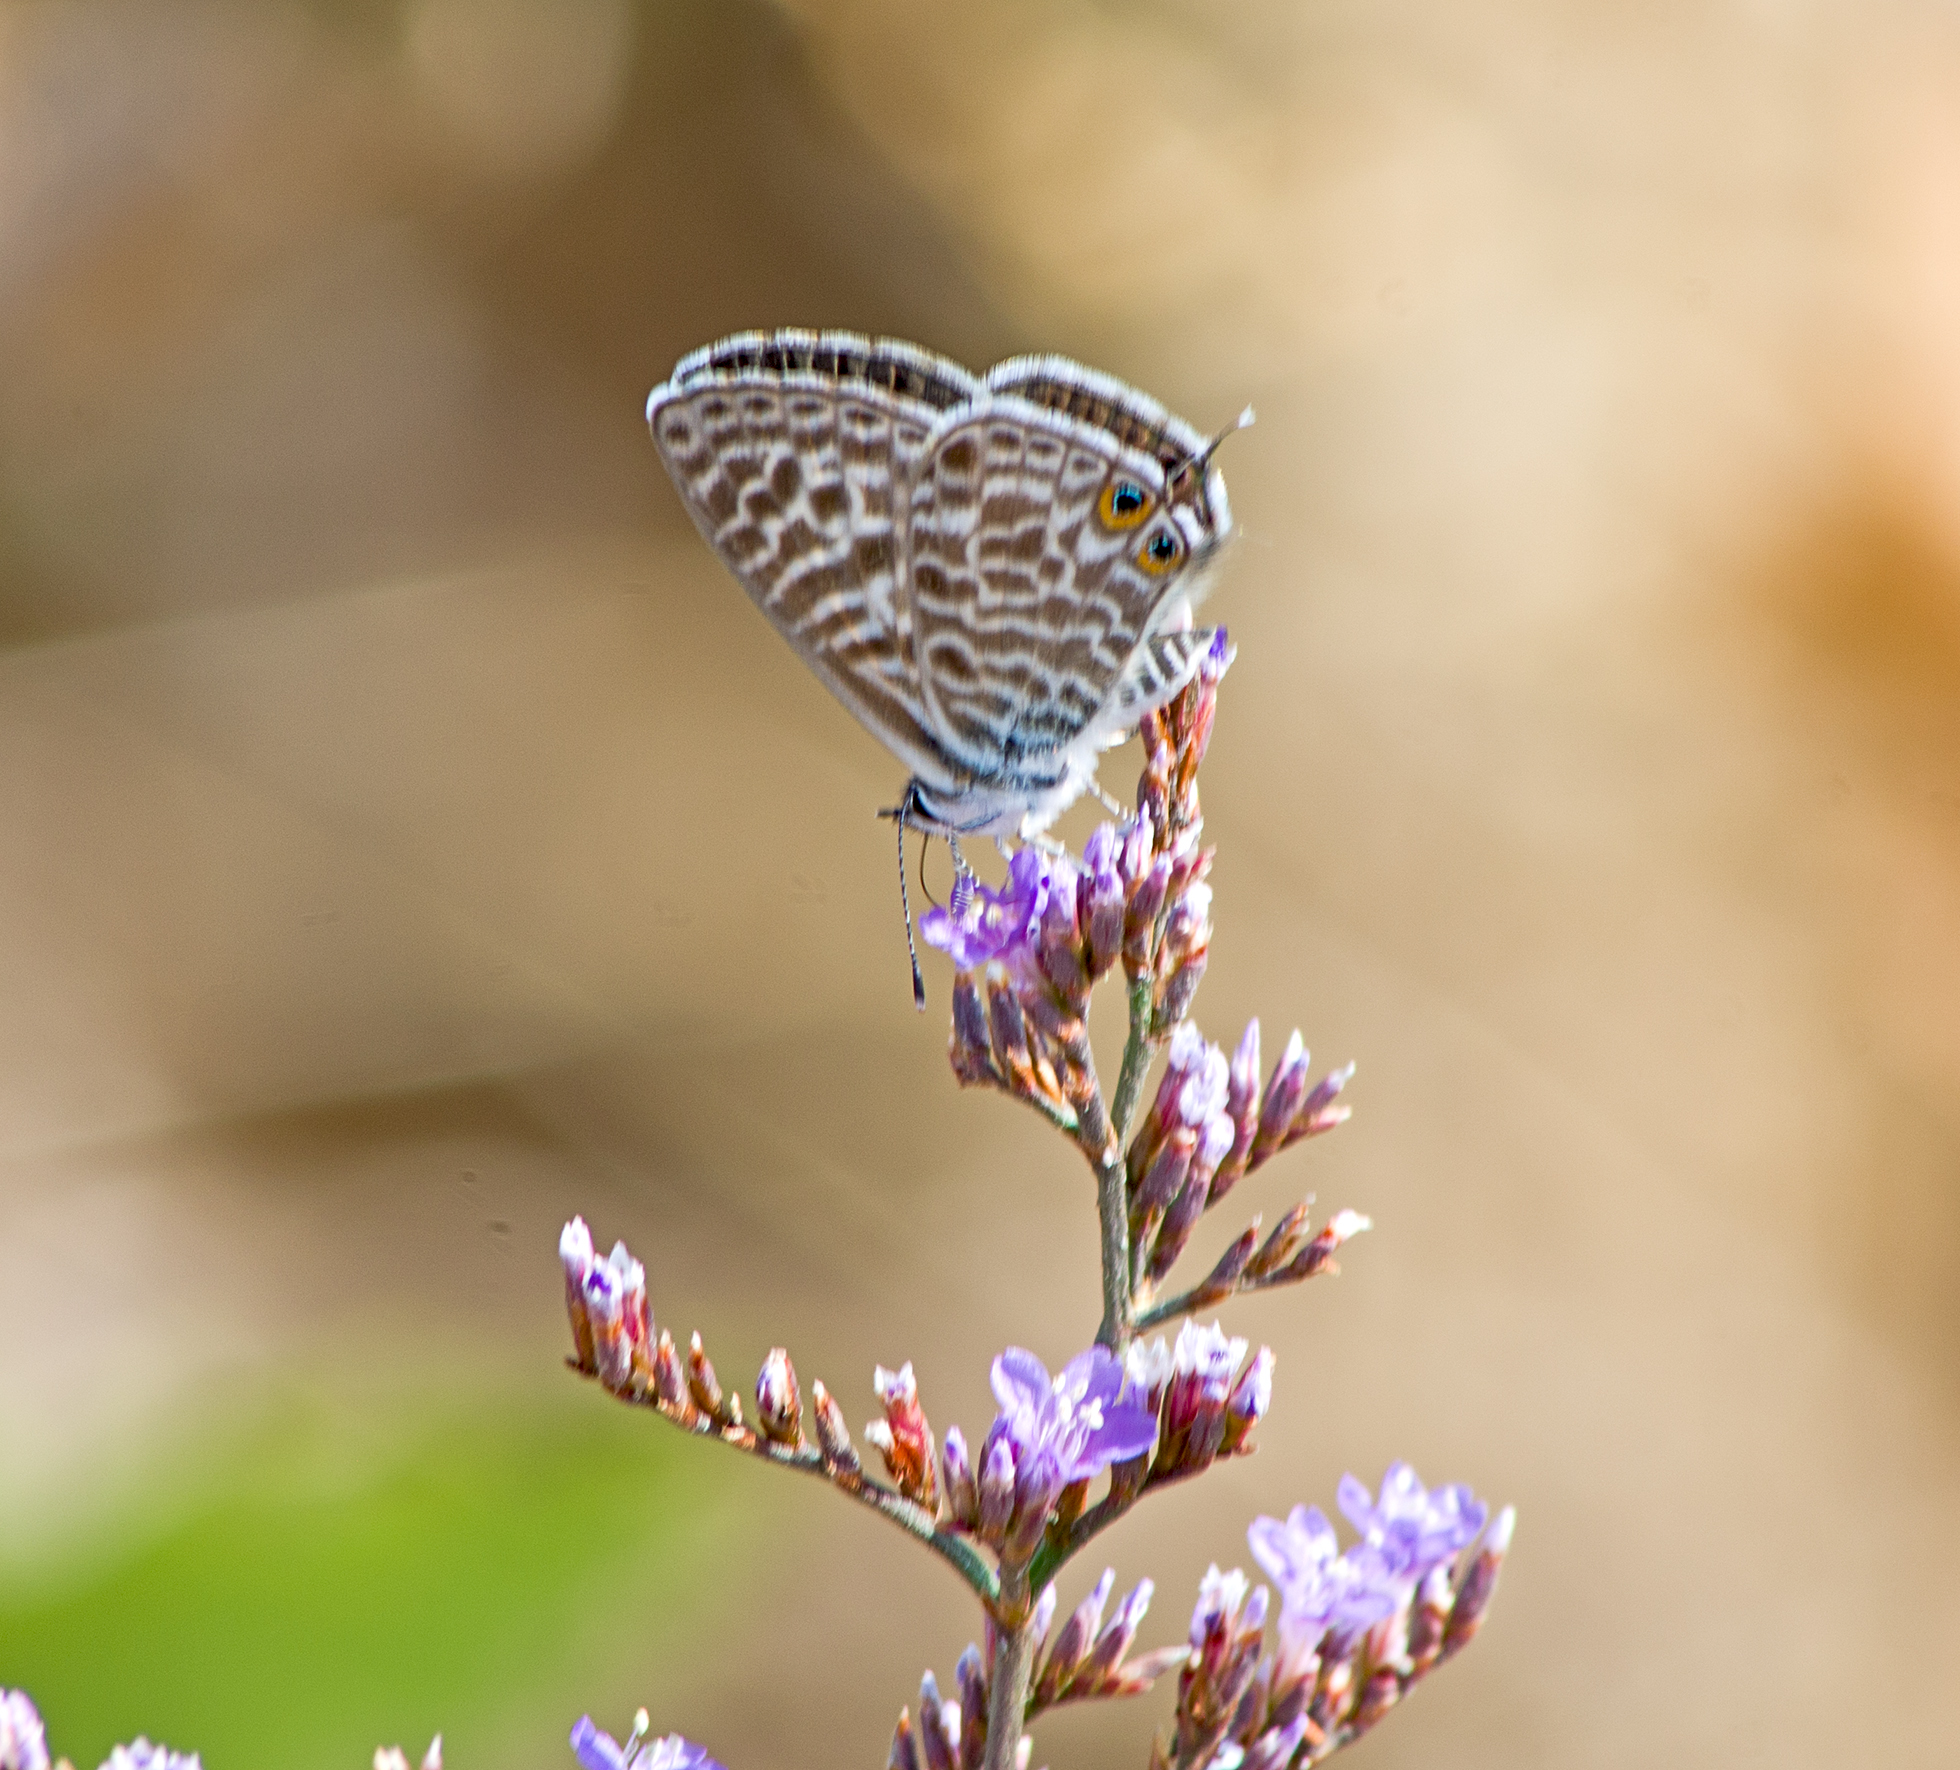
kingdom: Animalia
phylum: Arthropoda
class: Insecta
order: Lepidoptera
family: Lycaenidae
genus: Leptotes
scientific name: Leptotes pirithous
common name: Lang's short-tailed blue
